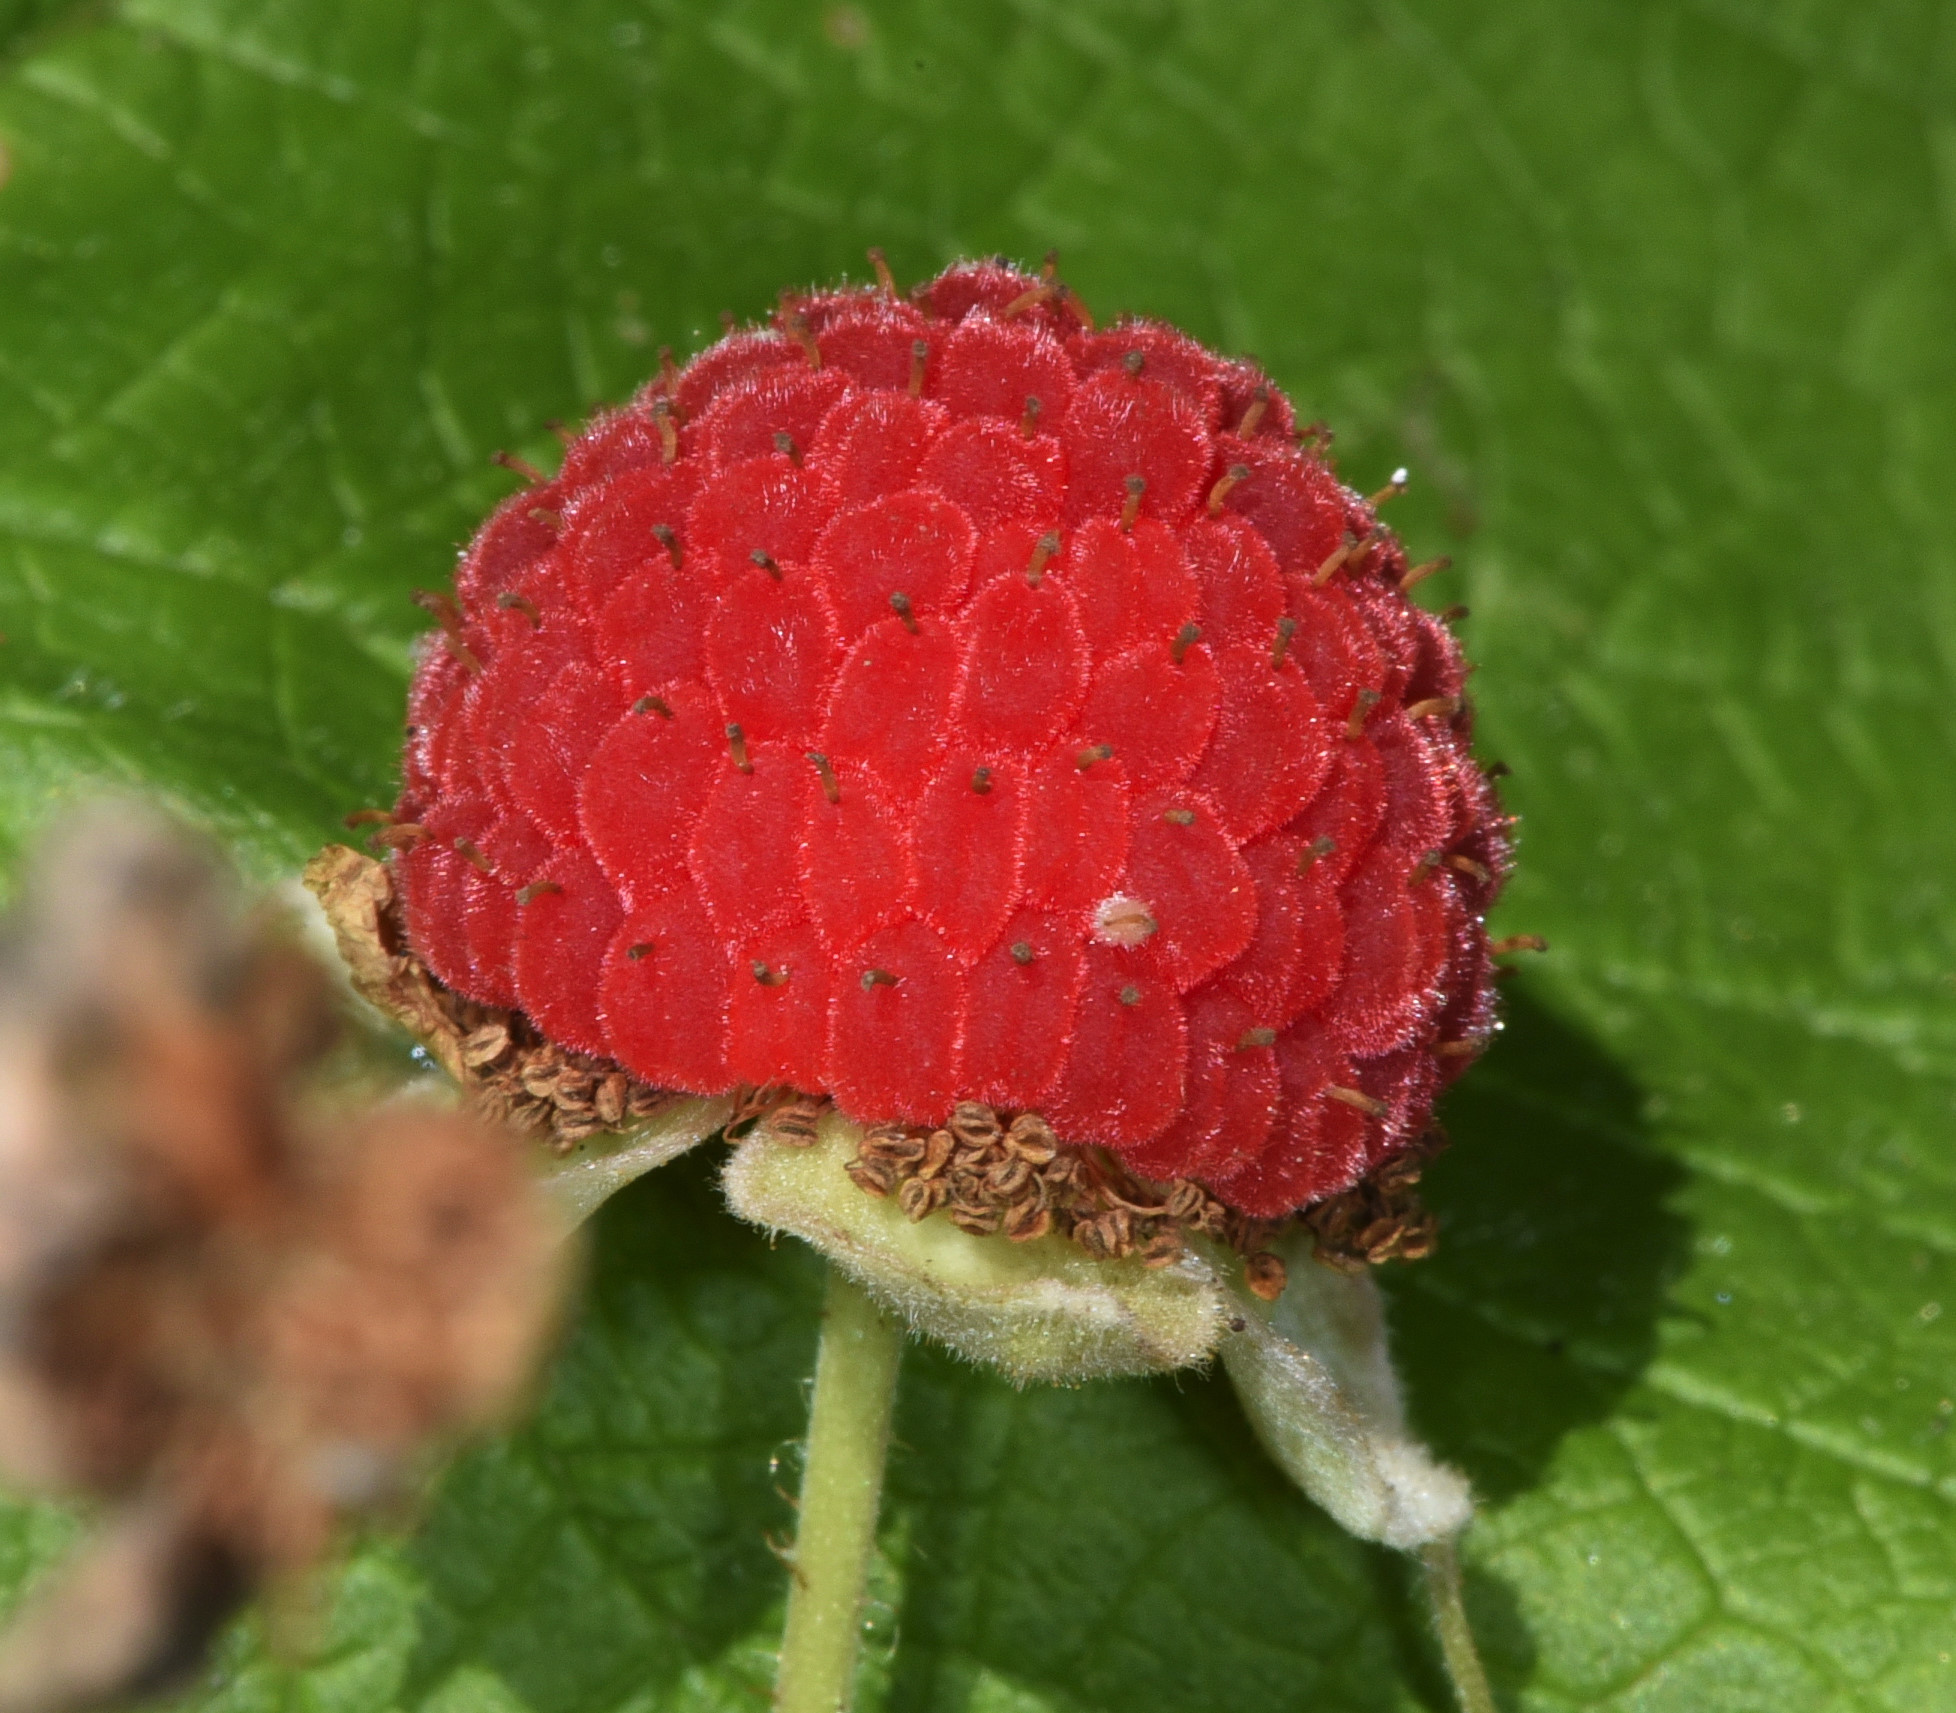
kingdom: Plantae
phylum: Tracheophyta
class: Magnoliopsida
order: Rosales
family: Rosaceae
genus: Rubus
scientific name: Rubus parviflorus
